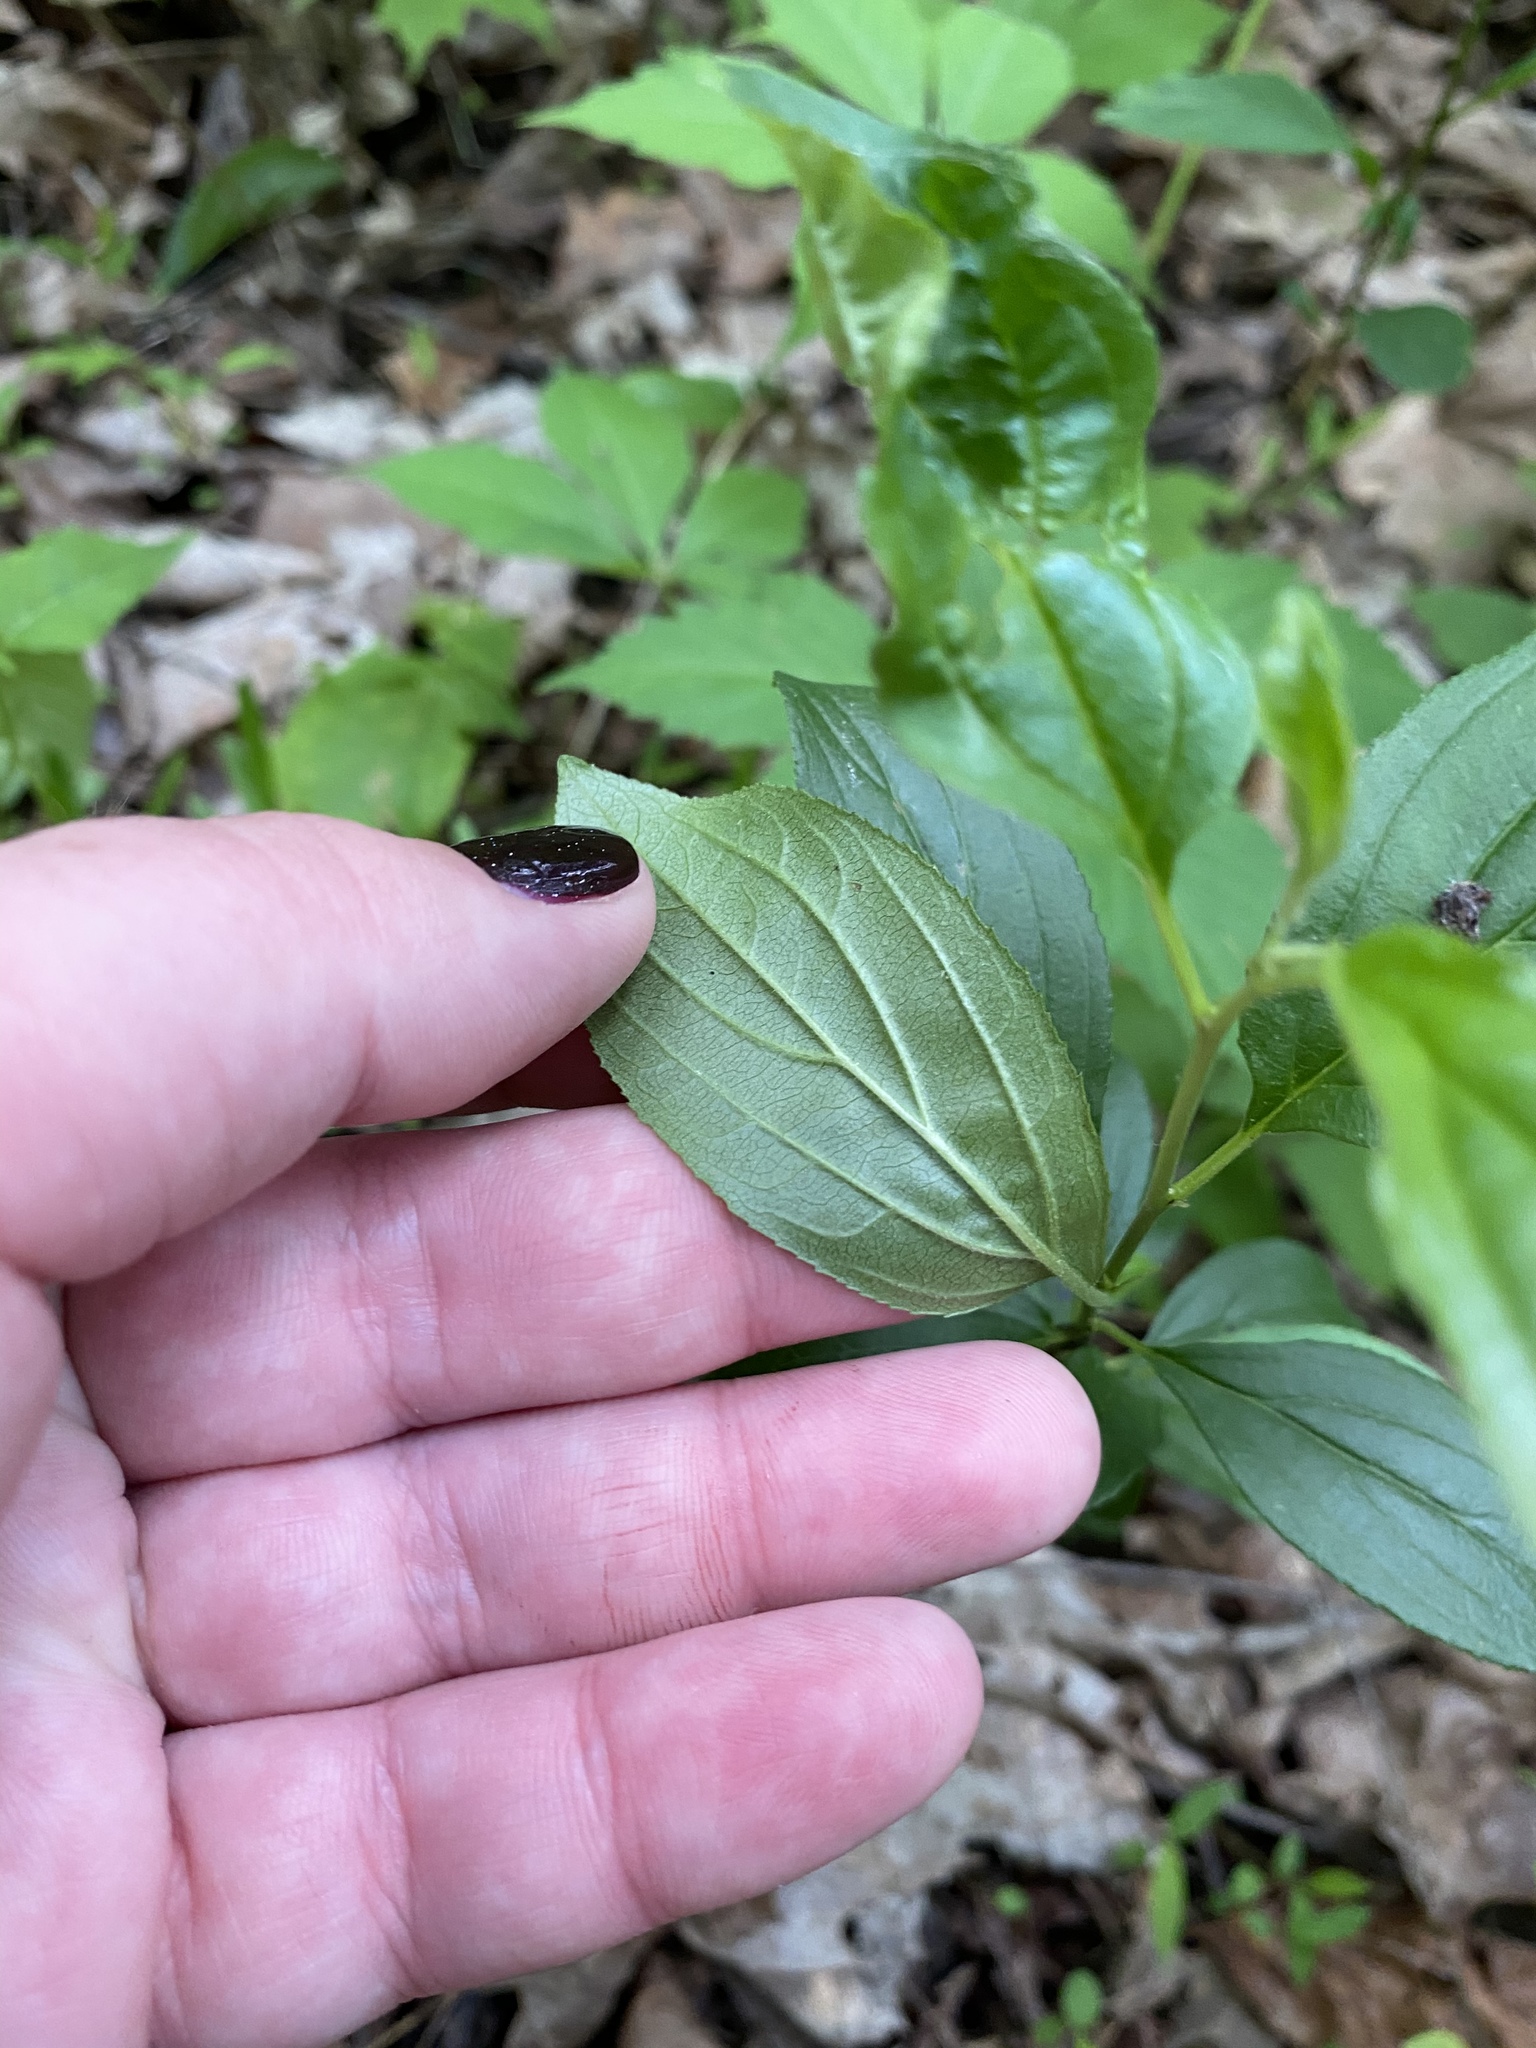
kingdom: Plantae
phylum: Tracheophyta
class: Magnoliopsida
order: Rosales
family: Rhamnaceae
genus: Rhamnus
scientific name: Rhamnus cathartica
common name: Common buckthorn
